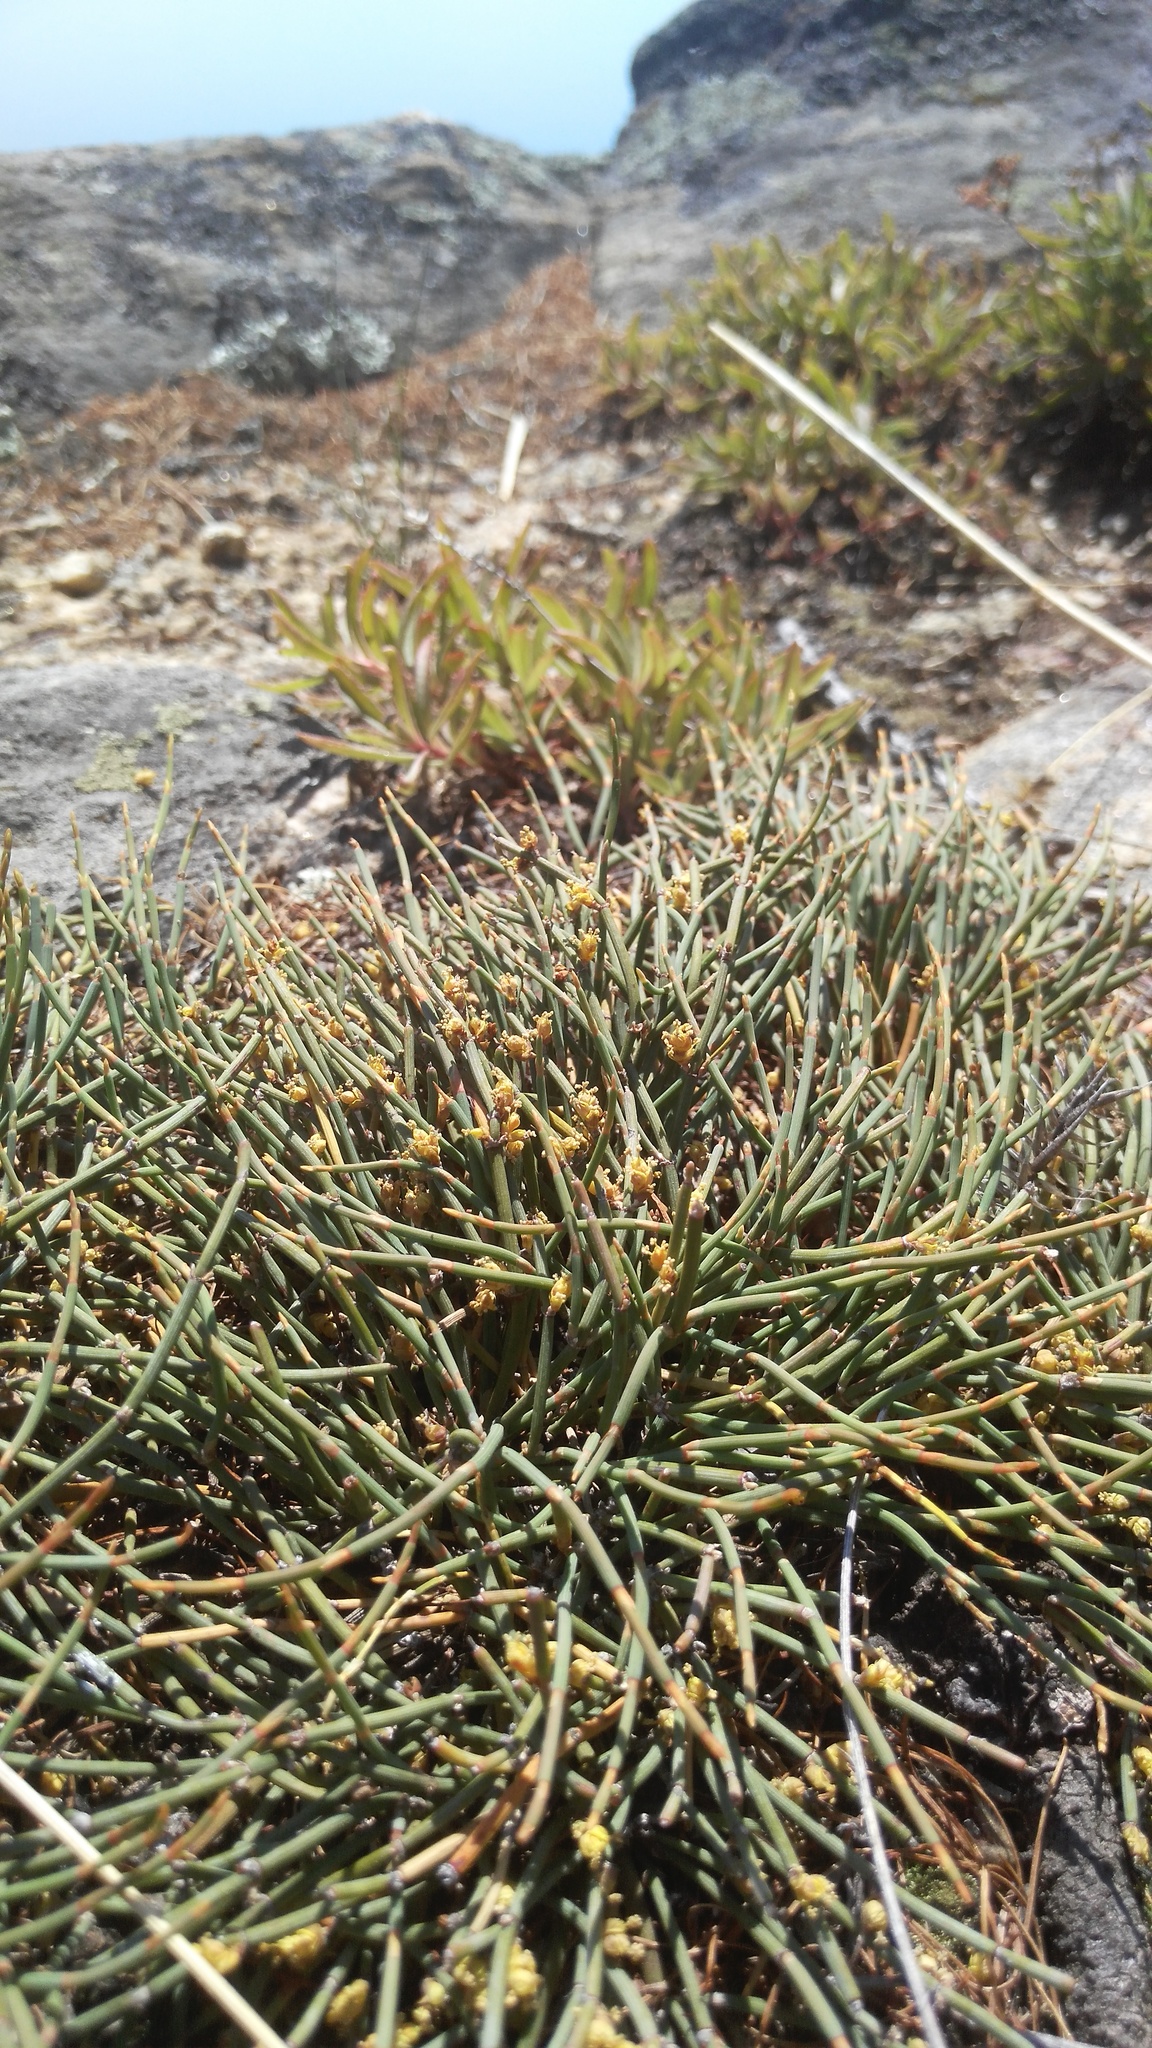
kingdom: Plantae
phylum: Tracheophyta
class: Gnetopsida
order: Ephedrales
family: Ephedraceae
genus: Ephedra
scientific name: Ephedra monosperma
